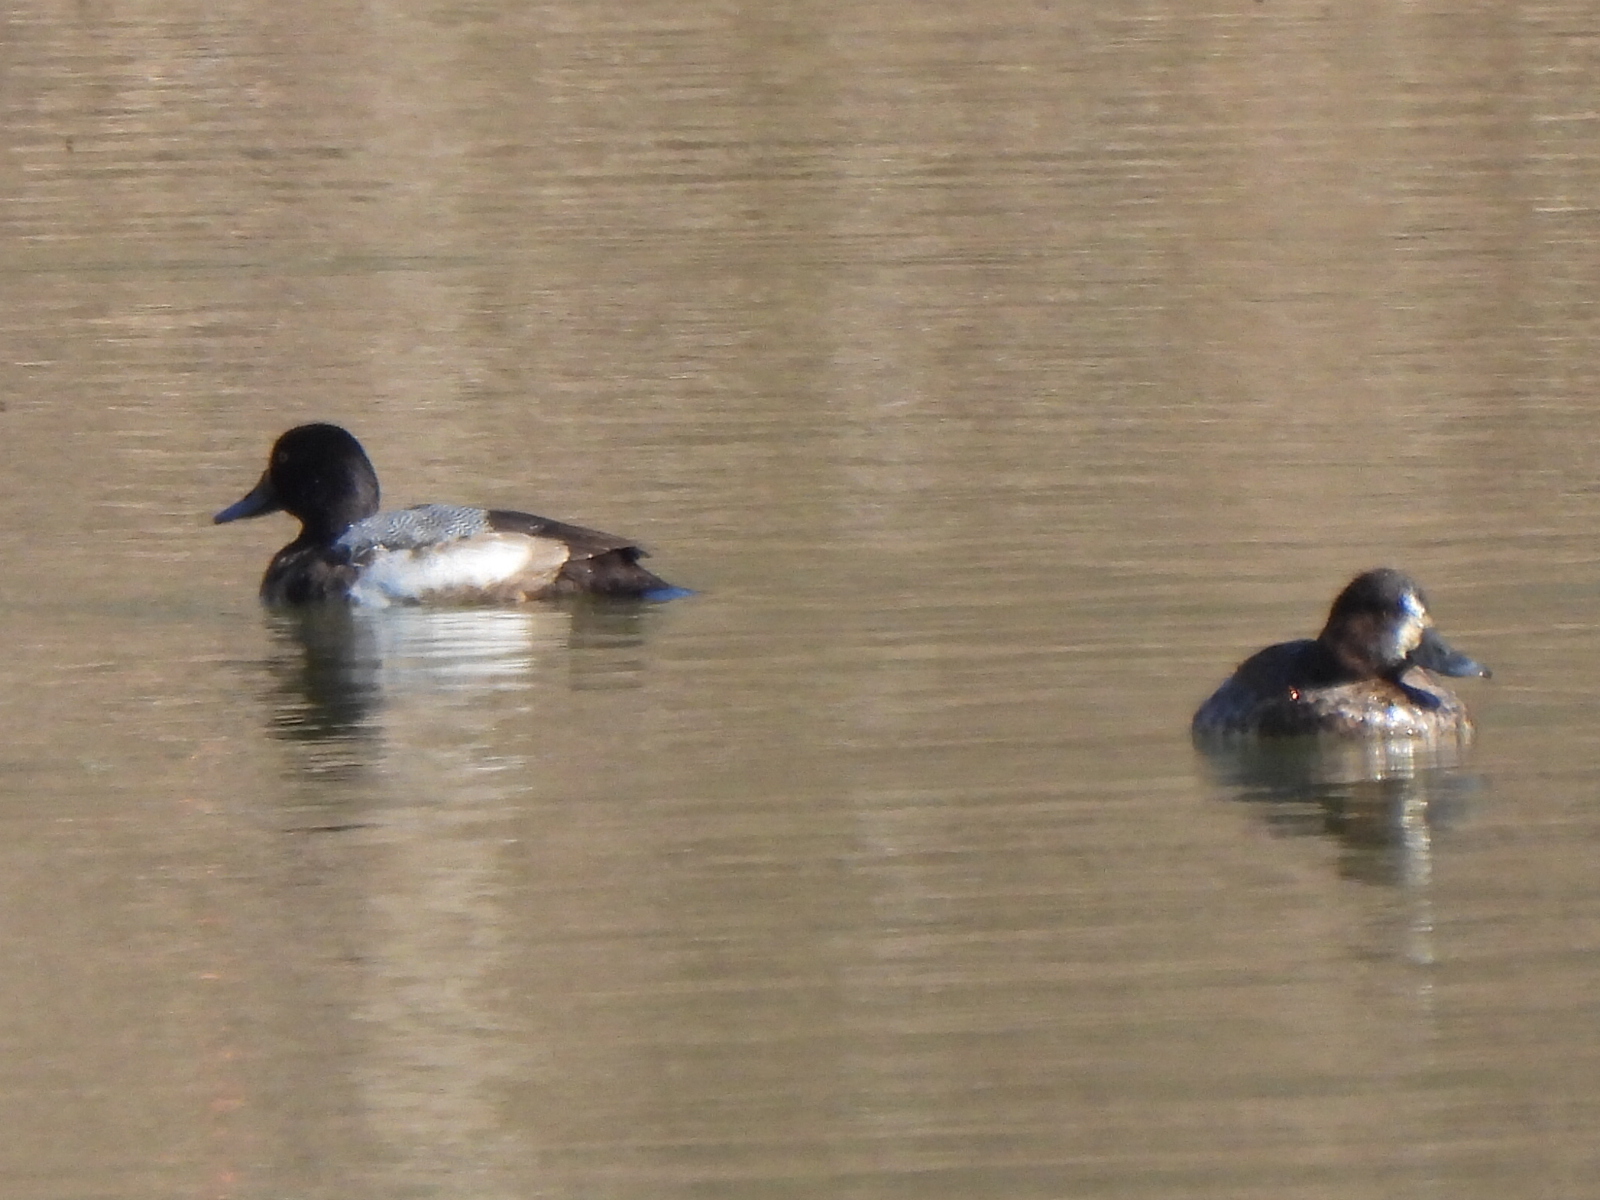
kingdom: Animalia
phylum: Chordata
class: Aves
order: Anseriformes
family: Anatidae
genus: Aythya
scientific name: Aythya affinis
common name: Lesser scaup
